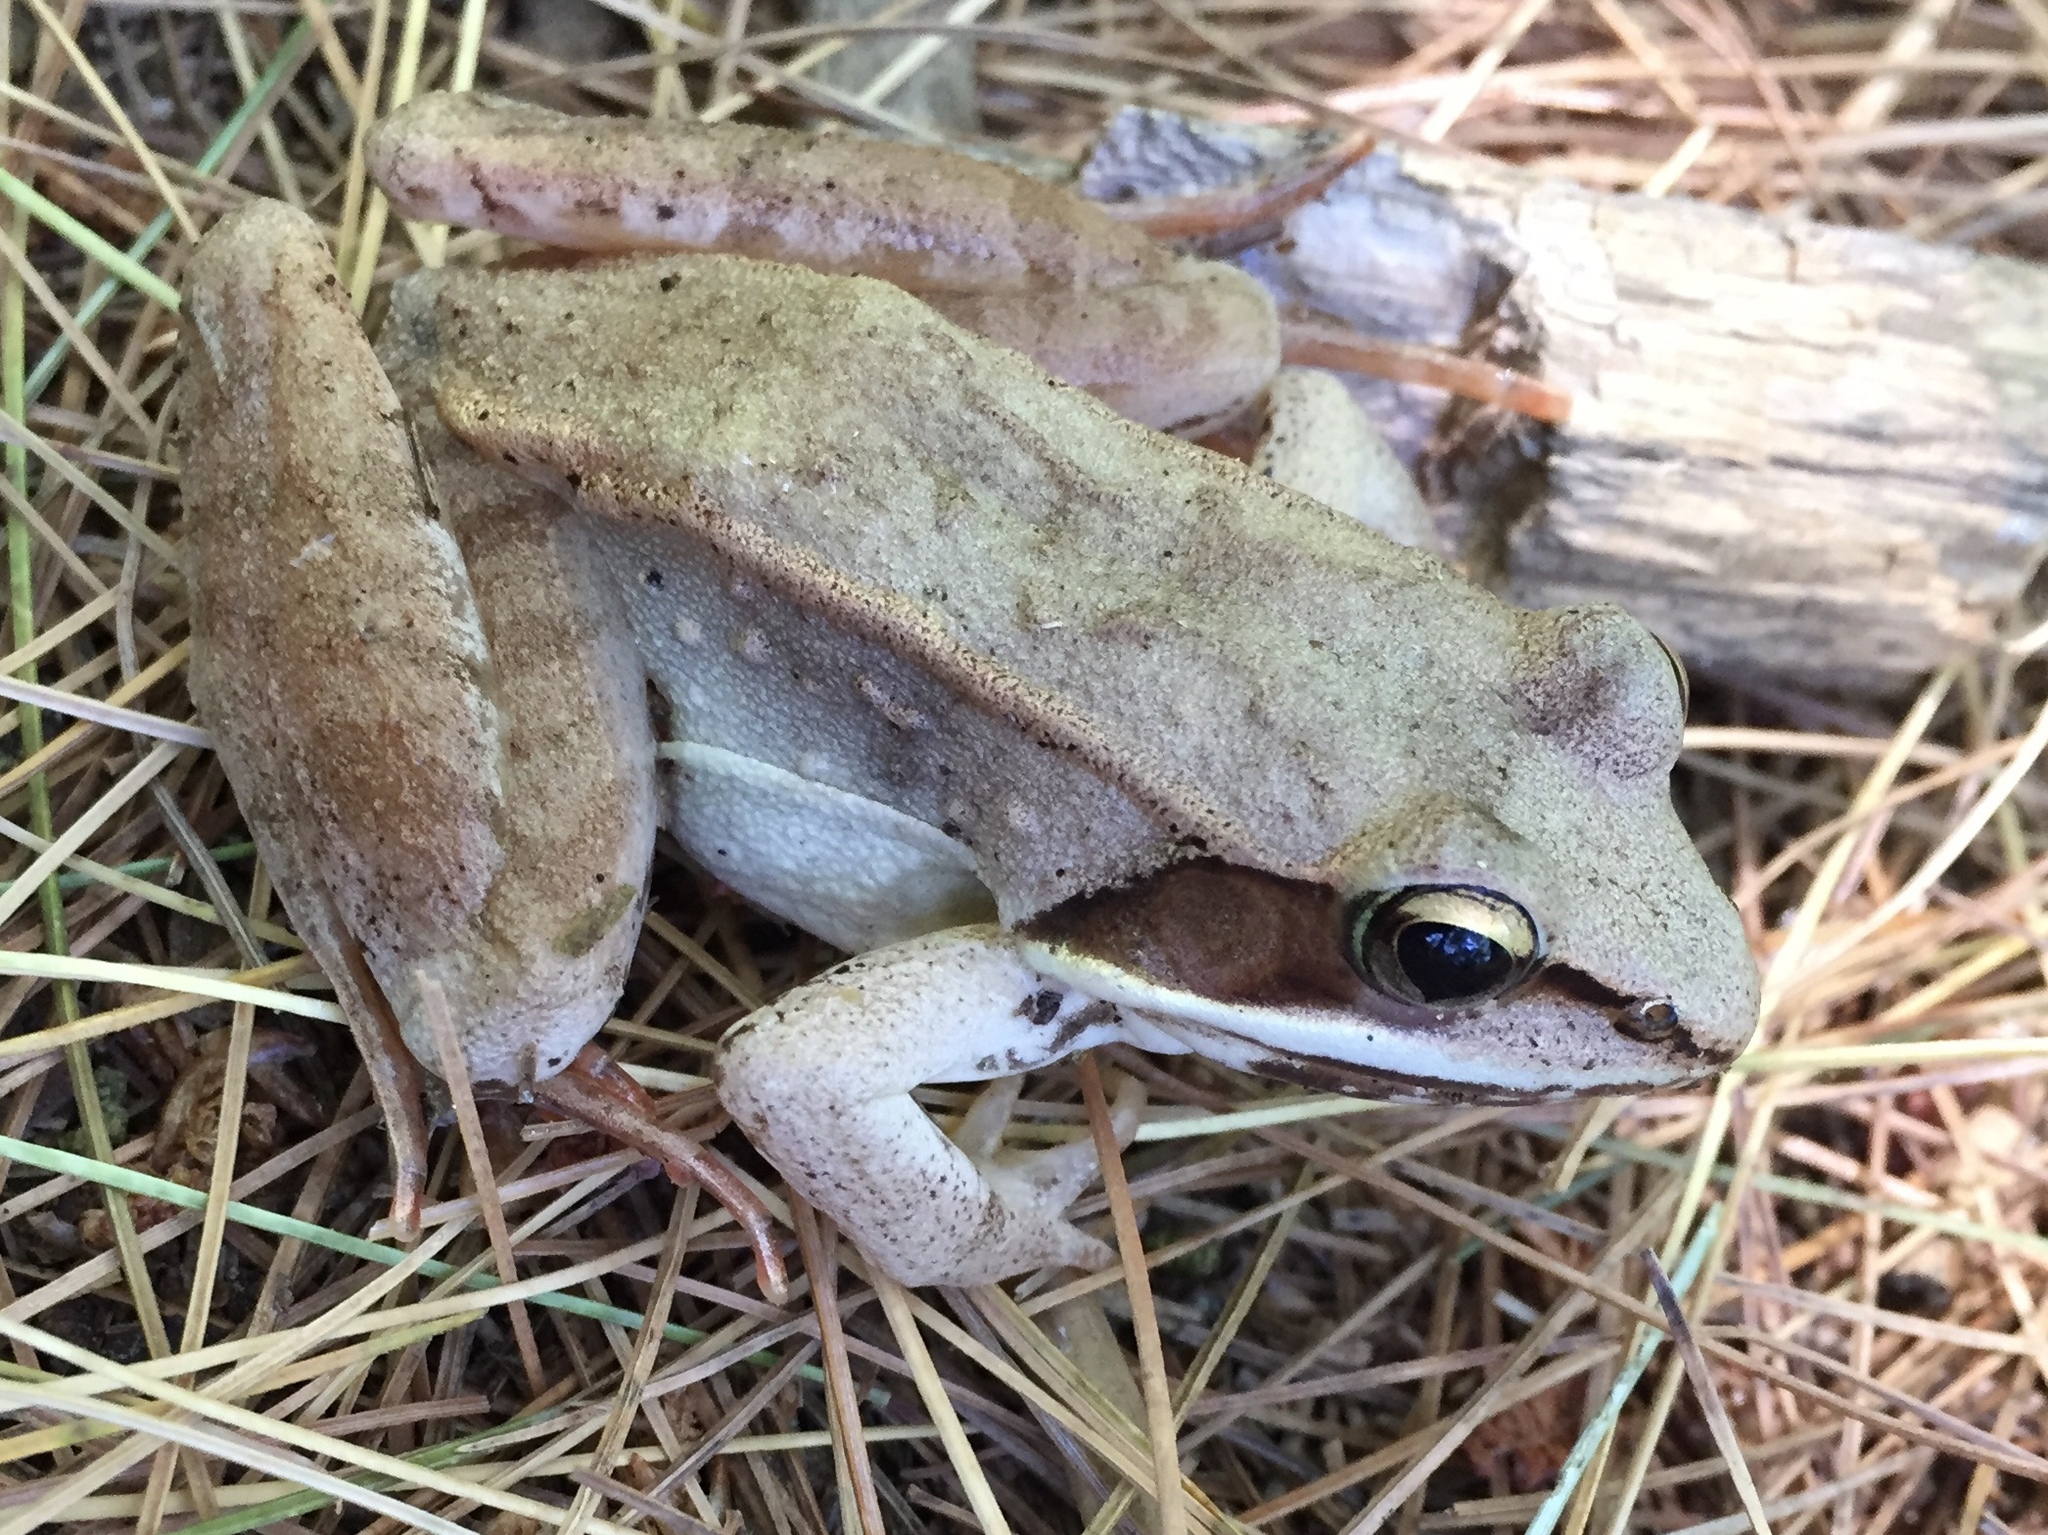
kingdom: Animalia
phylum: Chordata
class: Amphibia
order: Anura
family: Ranidae
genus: Lithobates
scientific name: Lithobates sylvaticus
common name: Wood frog
